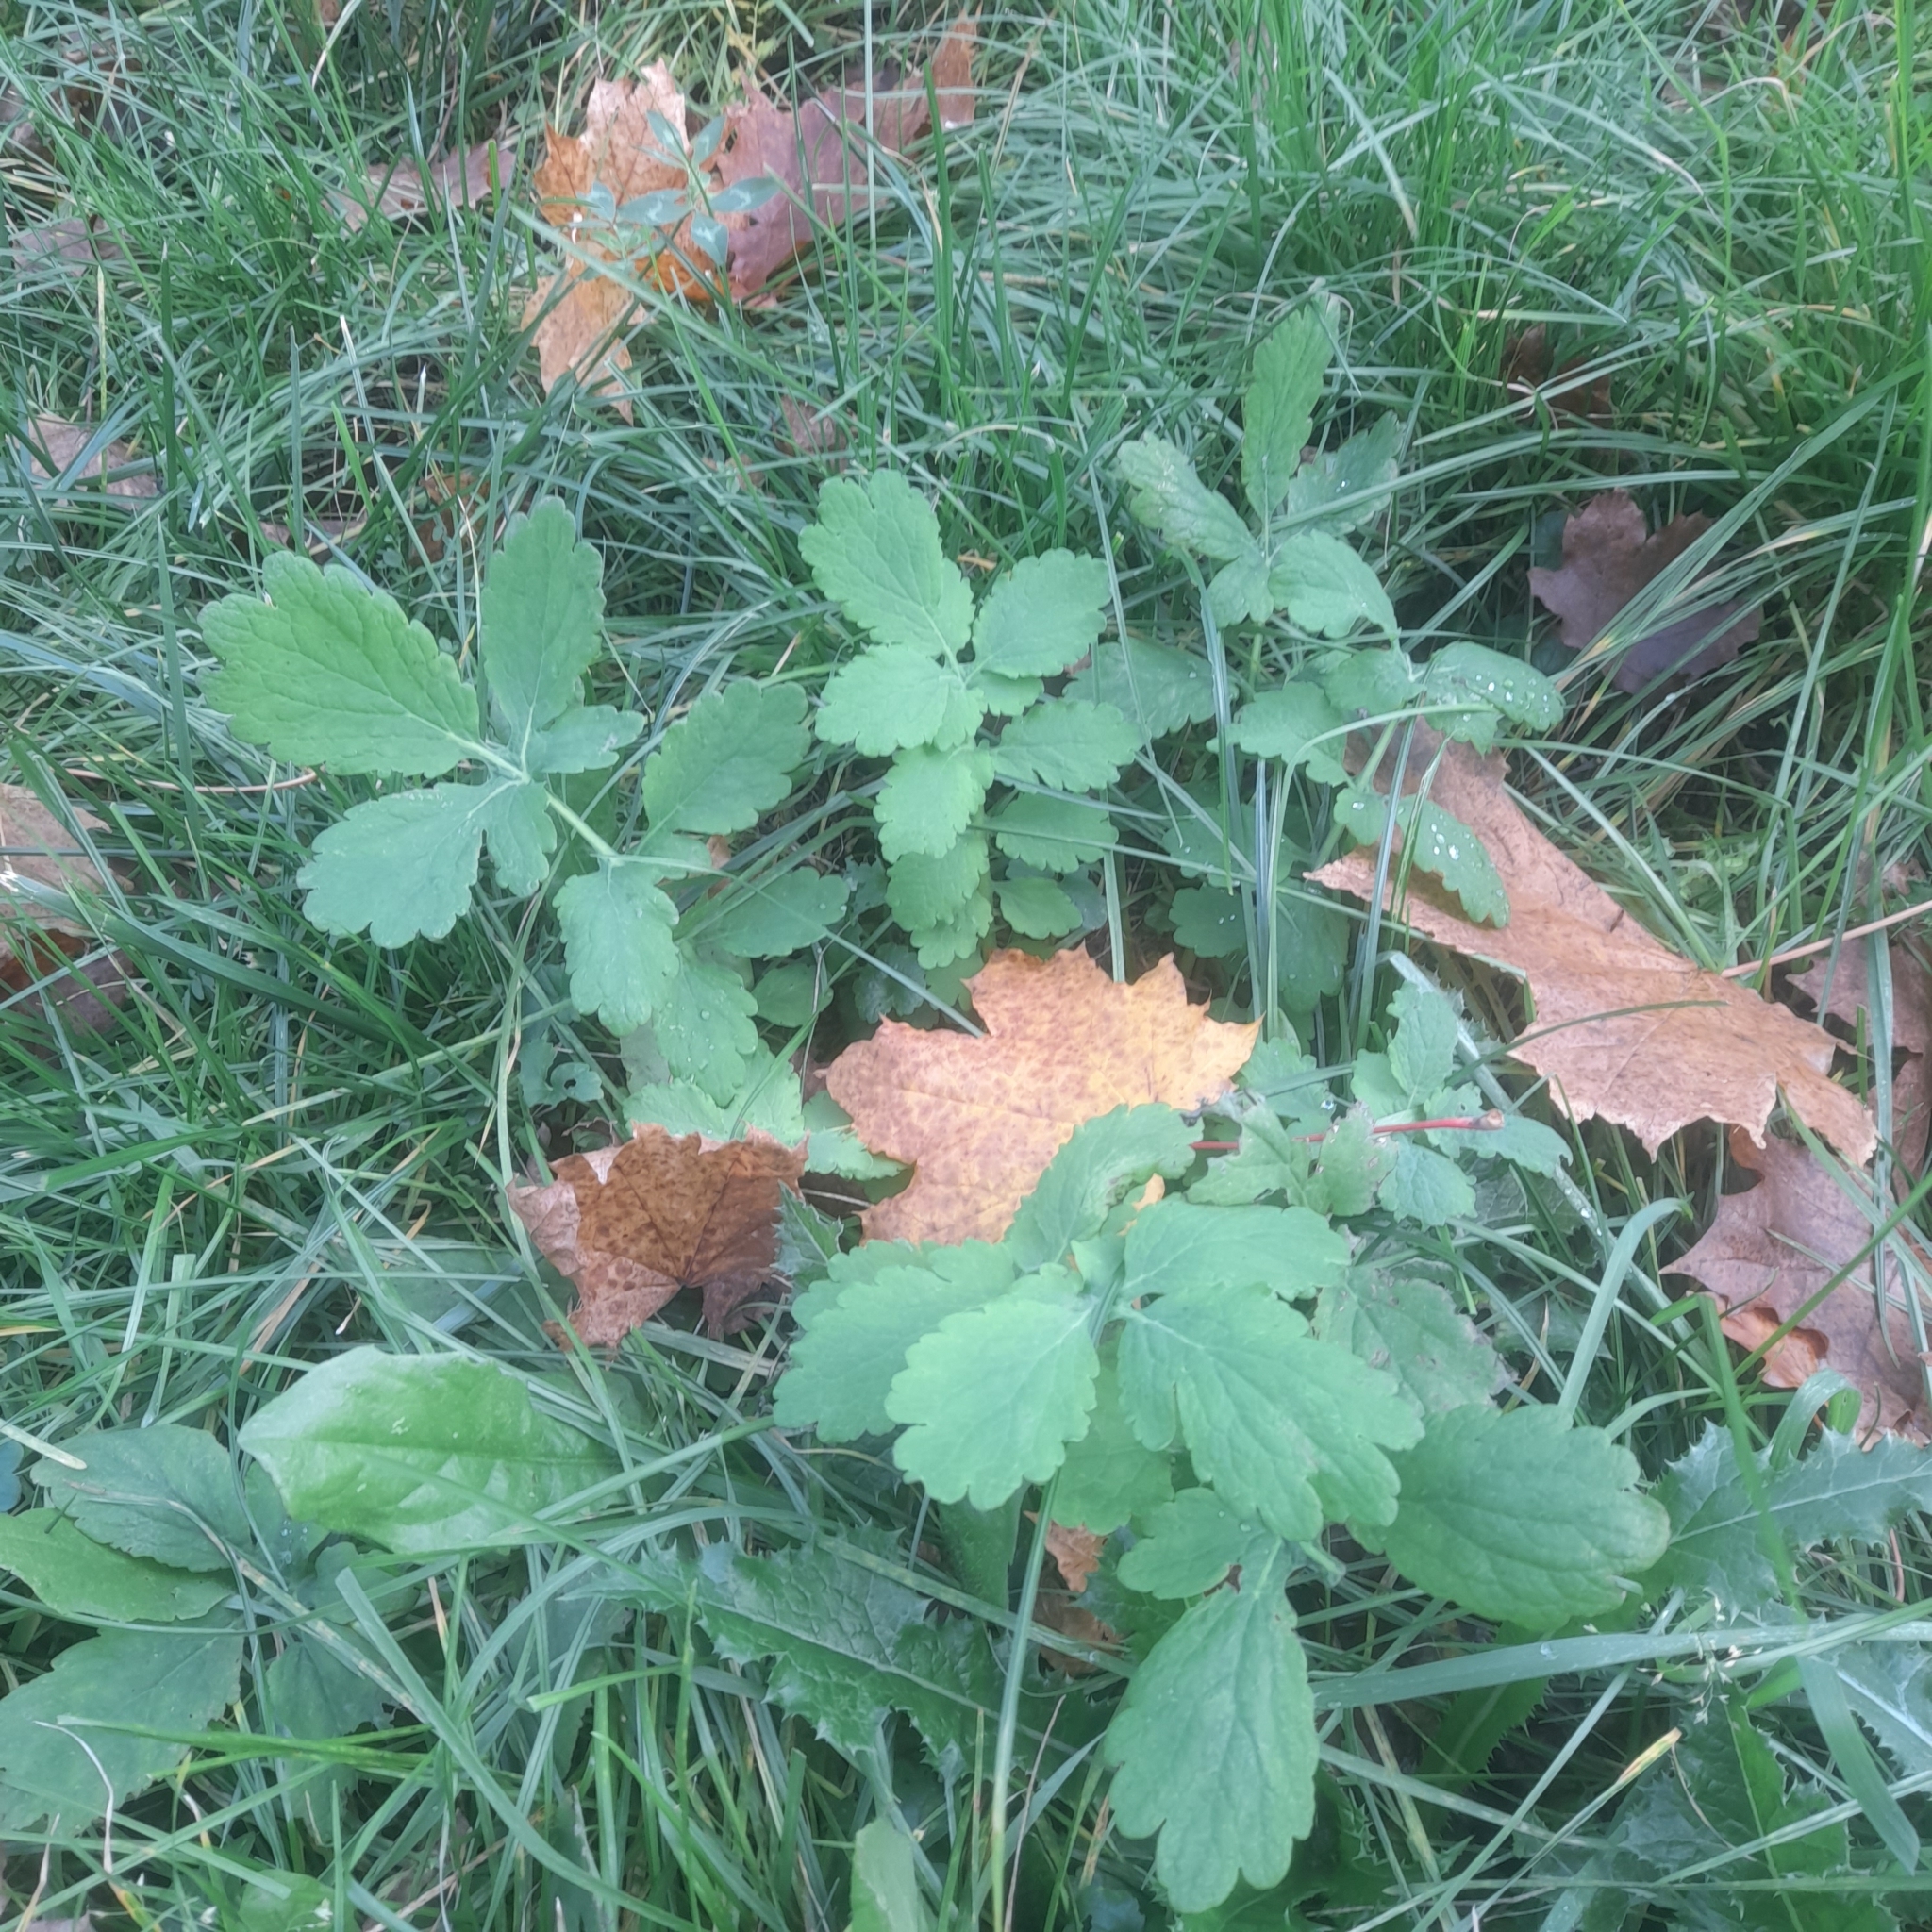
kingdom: Plantae
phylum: Tracheophyta
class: Magnoliopsida
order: Ranunculales
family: Papaveraceae
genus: Chelidonium
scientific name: Chelidonium majus
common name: Greater celandine
